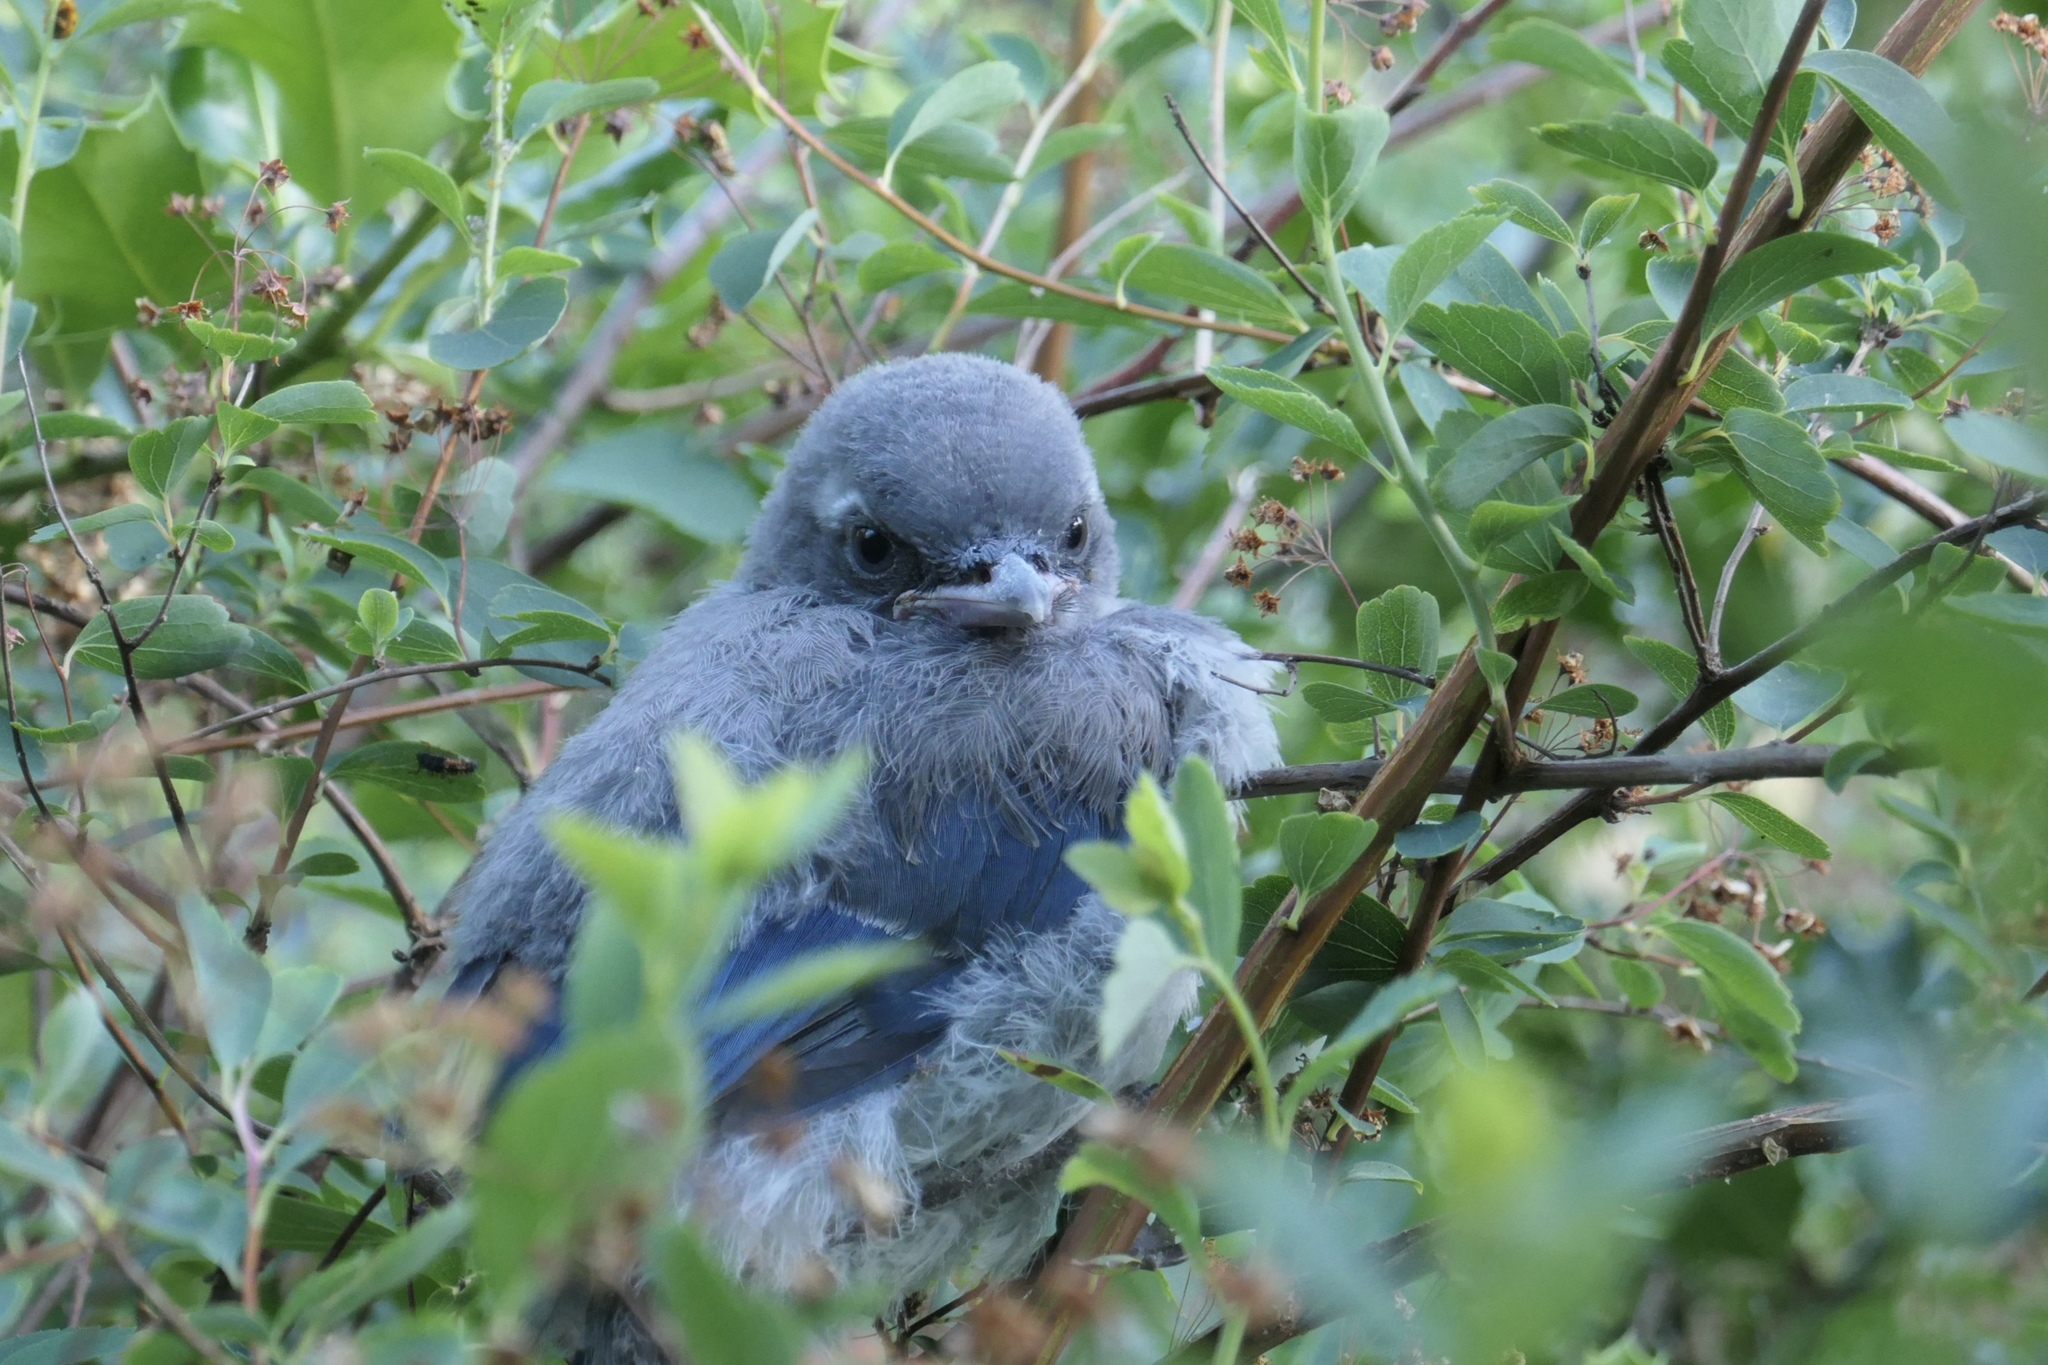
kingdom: Animalia
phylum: Chordata
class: Aves
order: Passeriformes
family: Corvidae
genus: Aphelocoma
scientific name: Aphelocoma californica
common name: California scrub-jay
